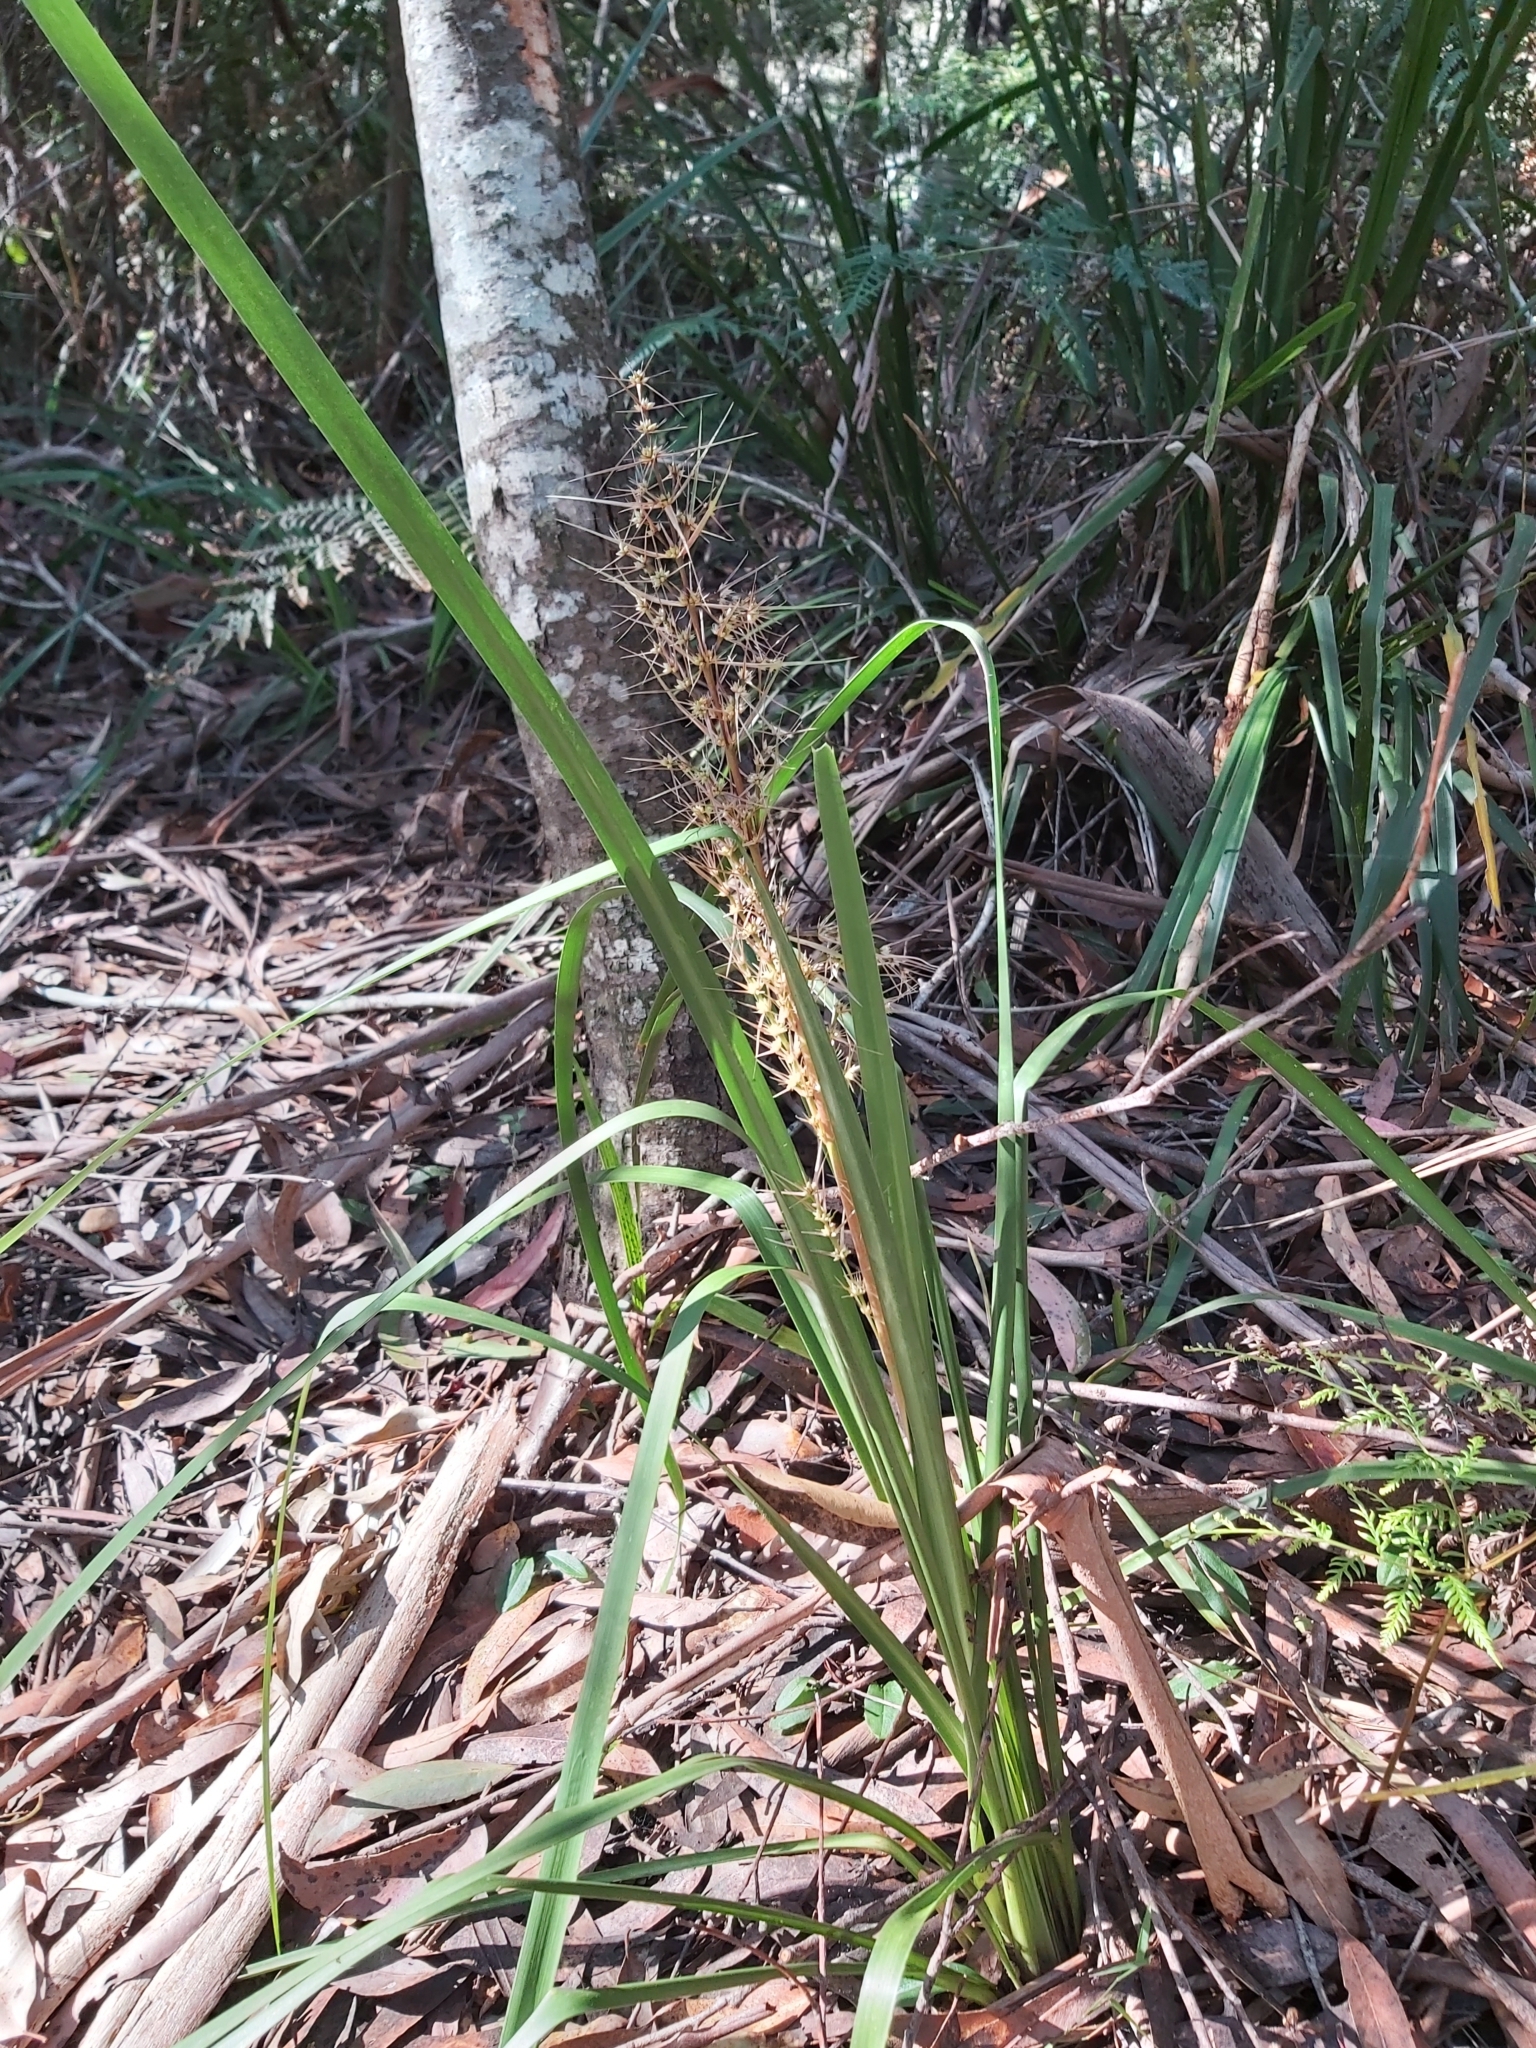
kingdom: Plantae
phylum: Tracheophyta
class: Liliopsida
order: Asparagales
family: Asparagaceae
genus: Lomandra
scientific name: Lomandra longifolia
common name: Longleaf mat-rush
